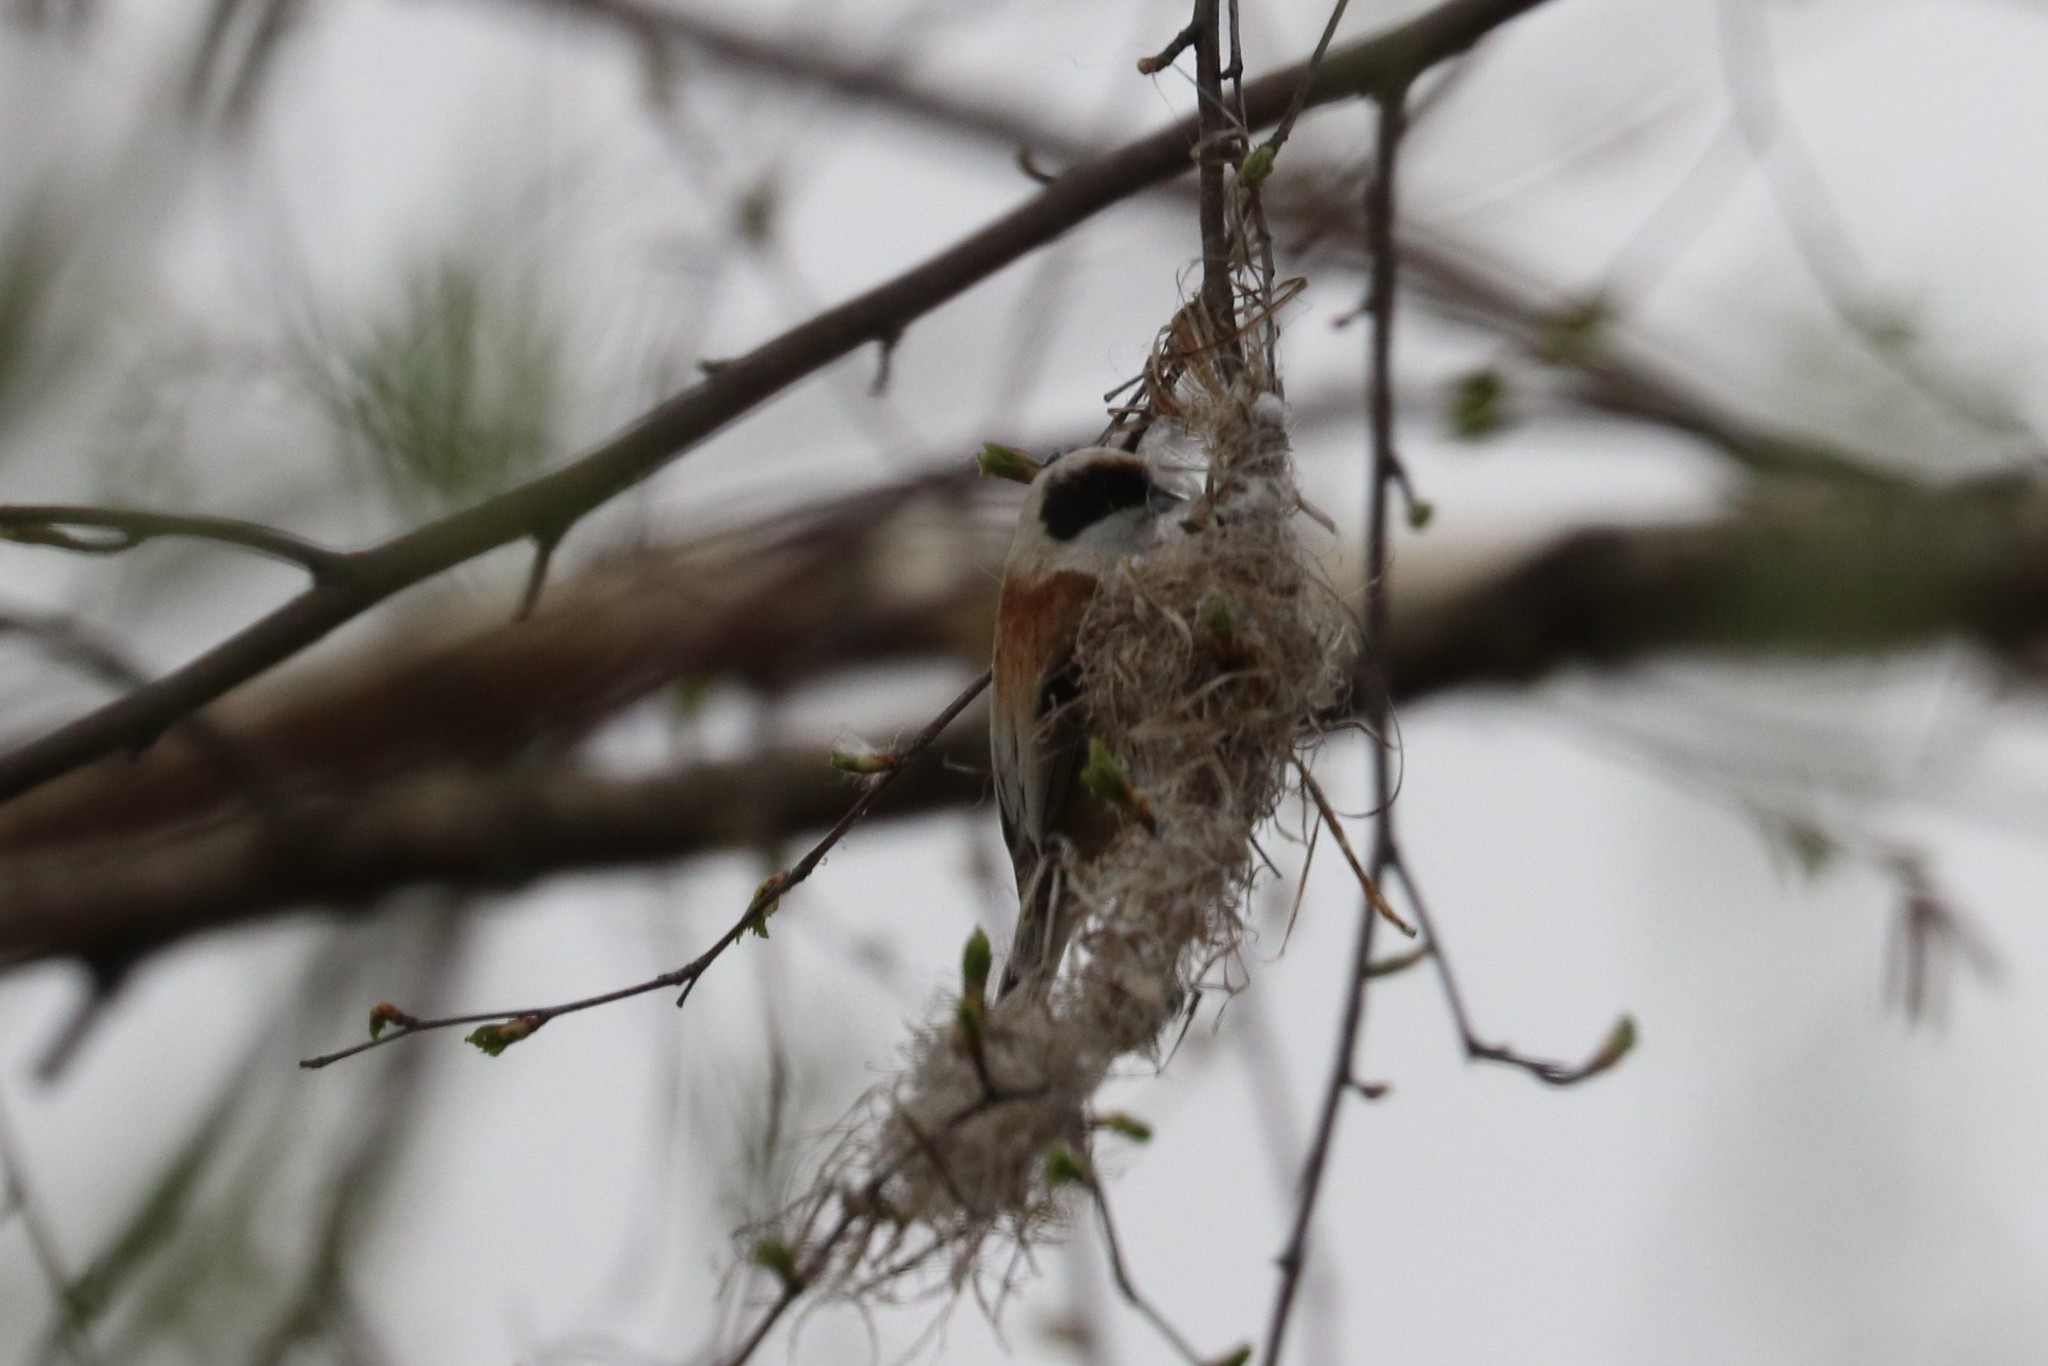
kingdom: Animalia
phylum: Chordata
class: Aves
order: Passeriformes
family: Remizidae
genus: Remiz
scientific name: Remiz pendulinus
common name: Eurasian penduline tit
